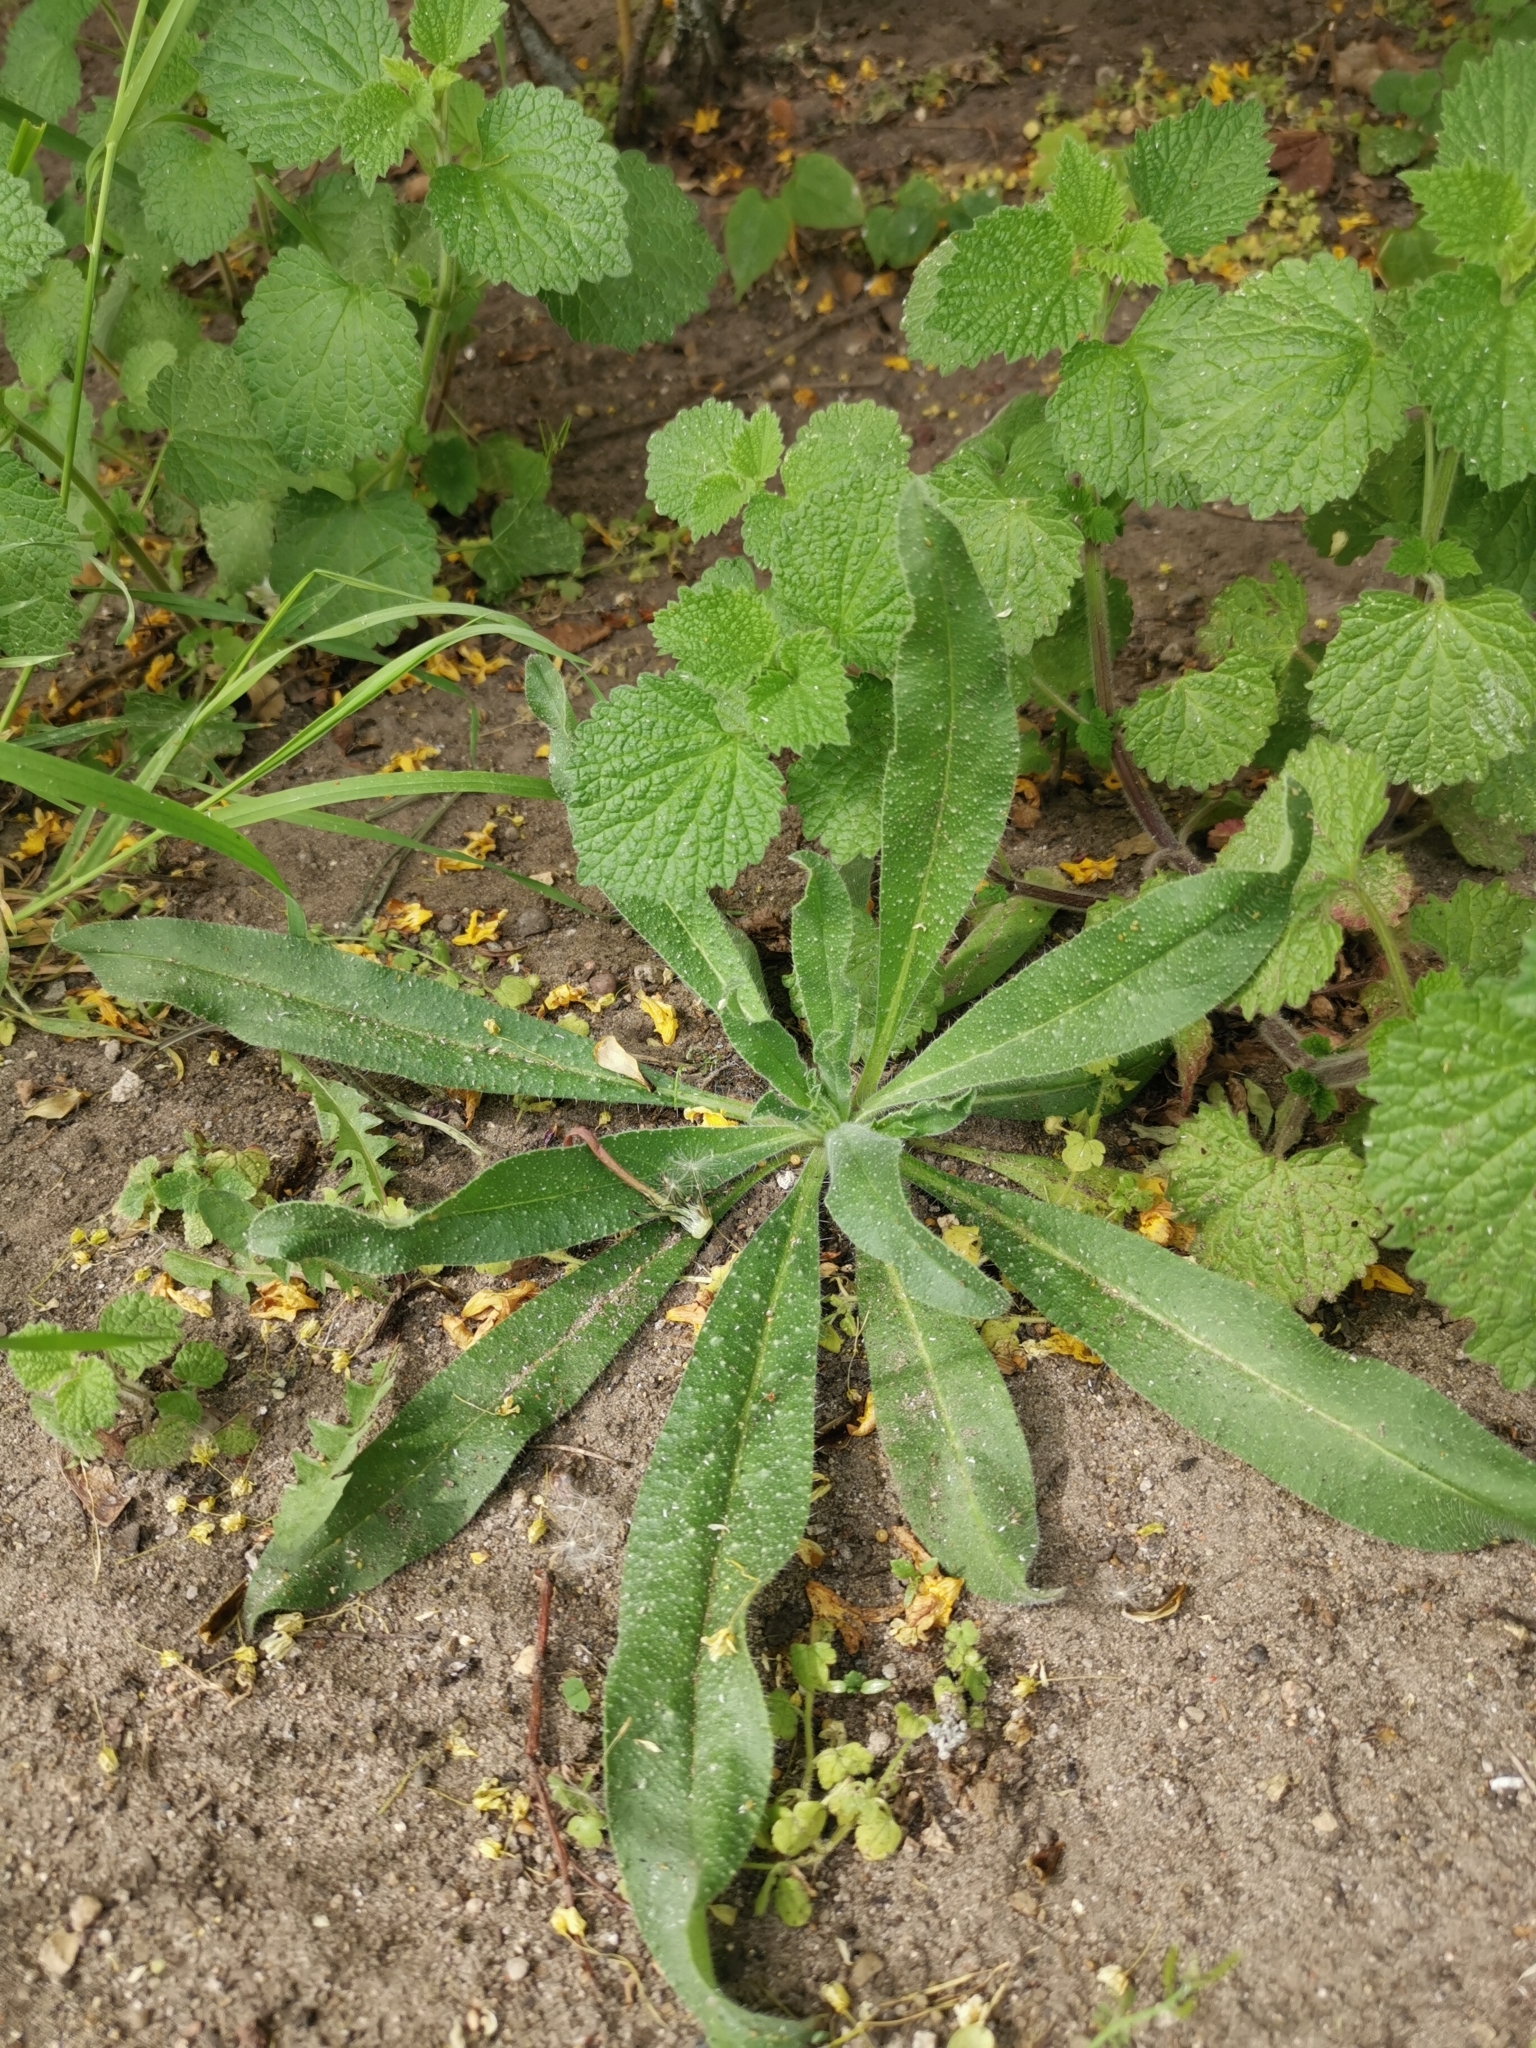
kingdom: Plantae
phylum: Tracheophyta
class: Magnoliopsida
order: Boraginales
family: Boraginaceae
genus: Echium
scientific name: Echium vulgare
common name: Common viper's bugloss
